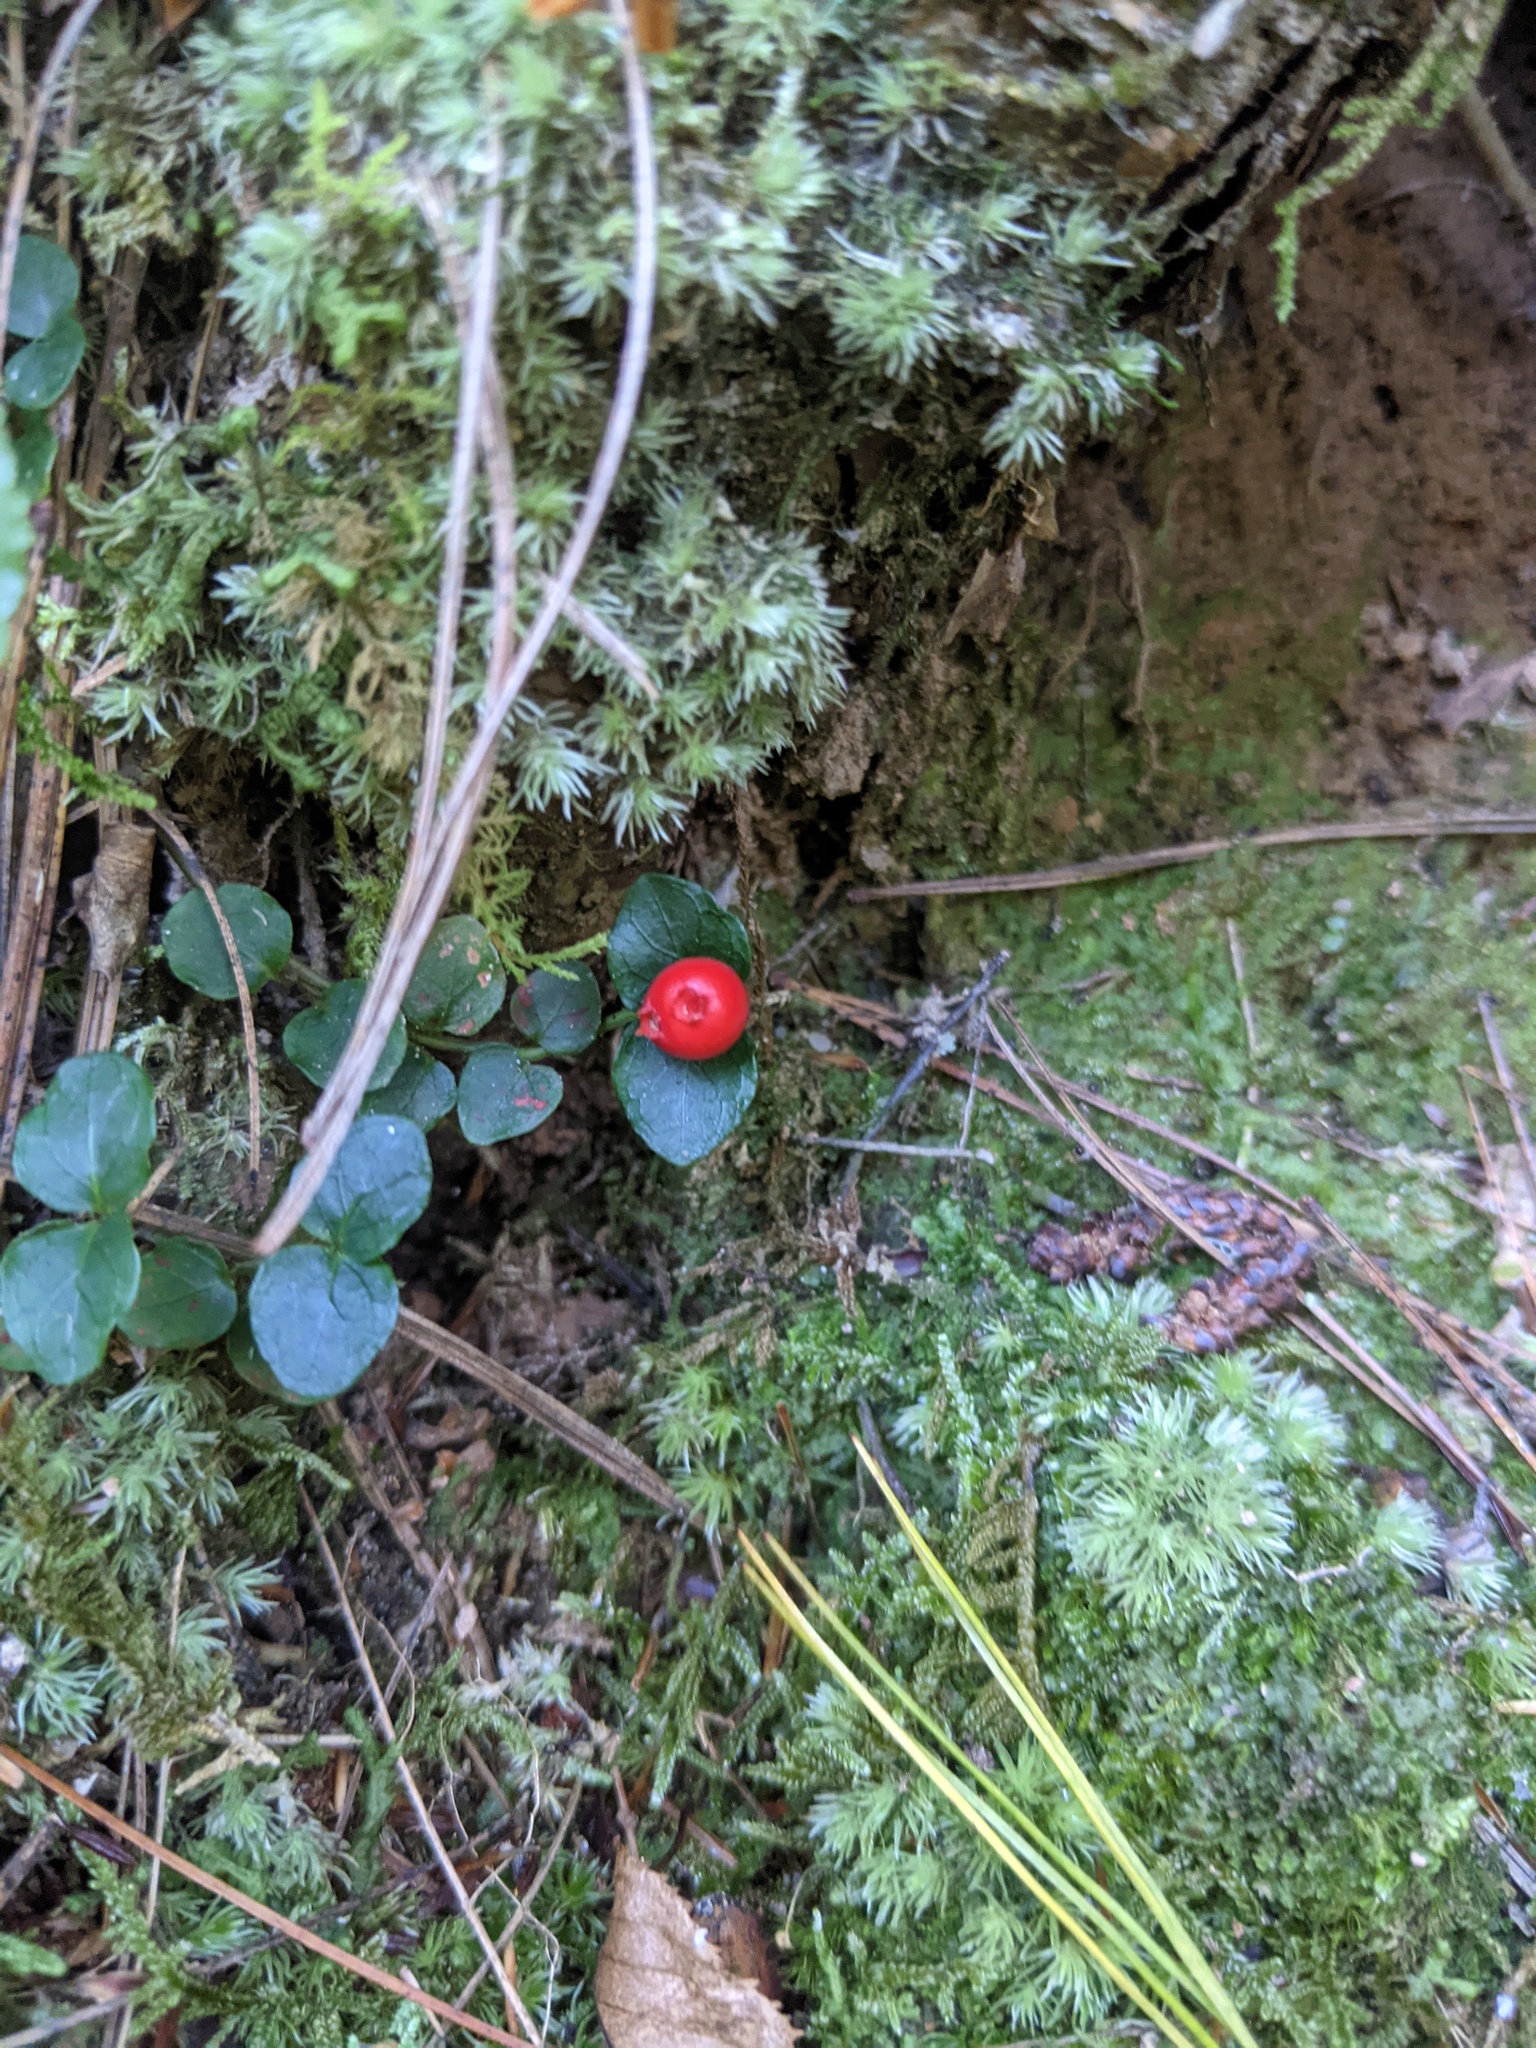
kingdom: Plantae
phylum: Tracheophyta
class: Magnoliopsida
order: Gentianales
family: Rubiaceae
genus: Mitchella
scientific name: Mitchella repens
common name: Partridge-berry
